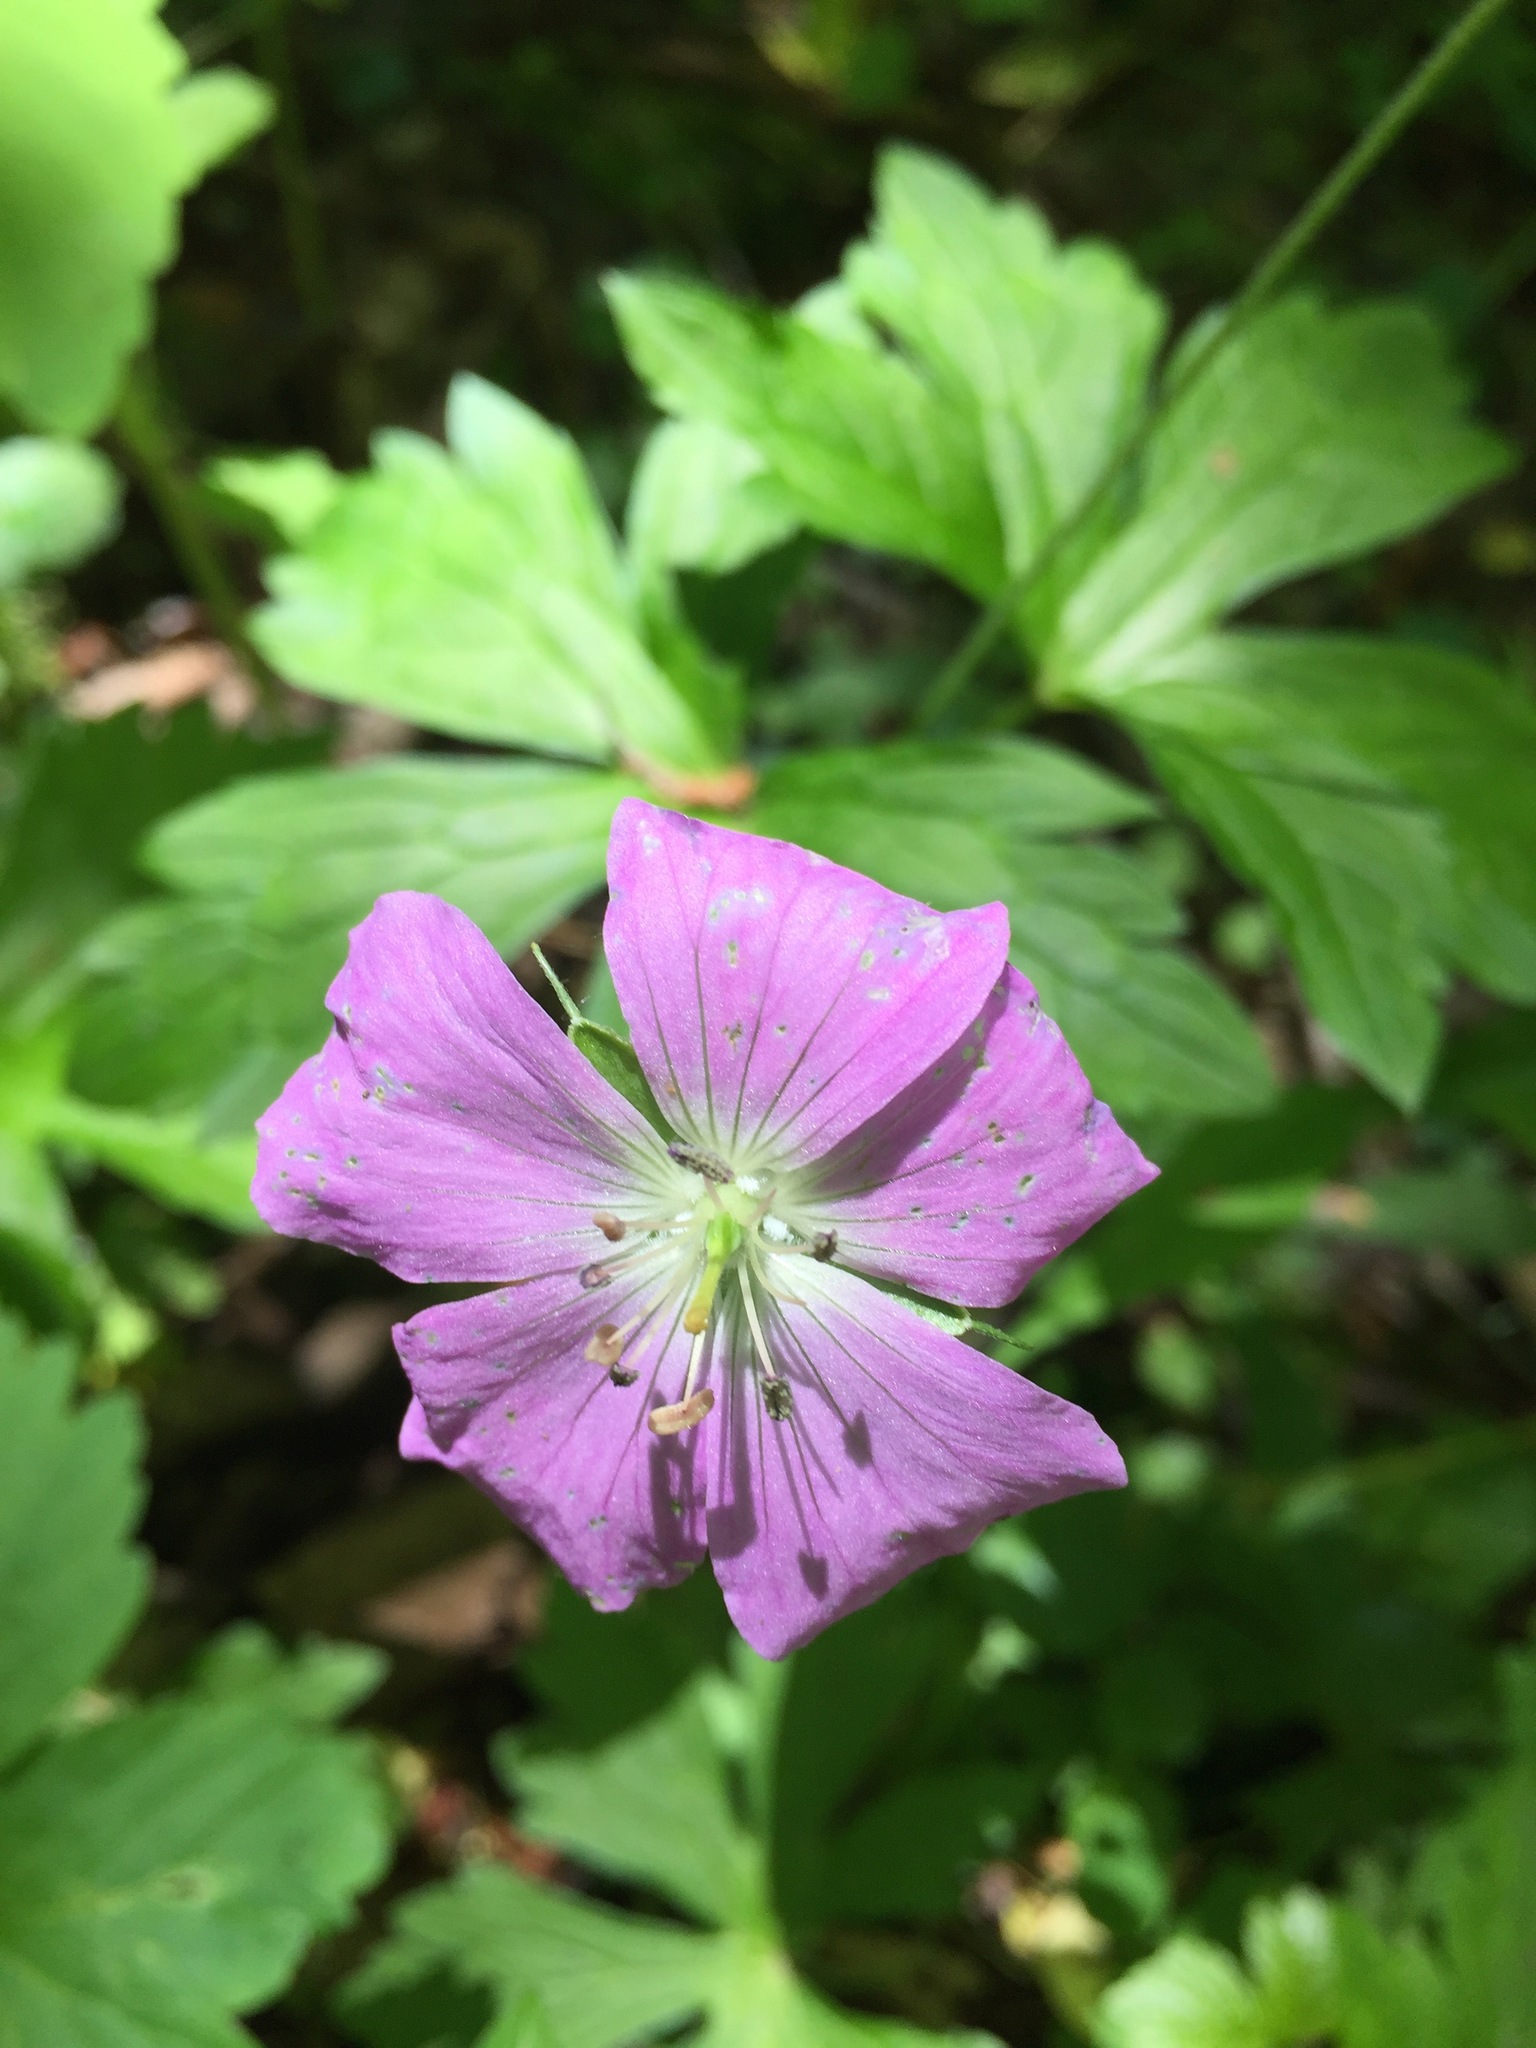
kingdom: Plantae
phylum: Tracheophyta
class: Magnoliopsida
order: Geraniales
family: Geraniaceae
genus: Geranium
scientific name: Geranium maculatum
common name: Spotted geranium
